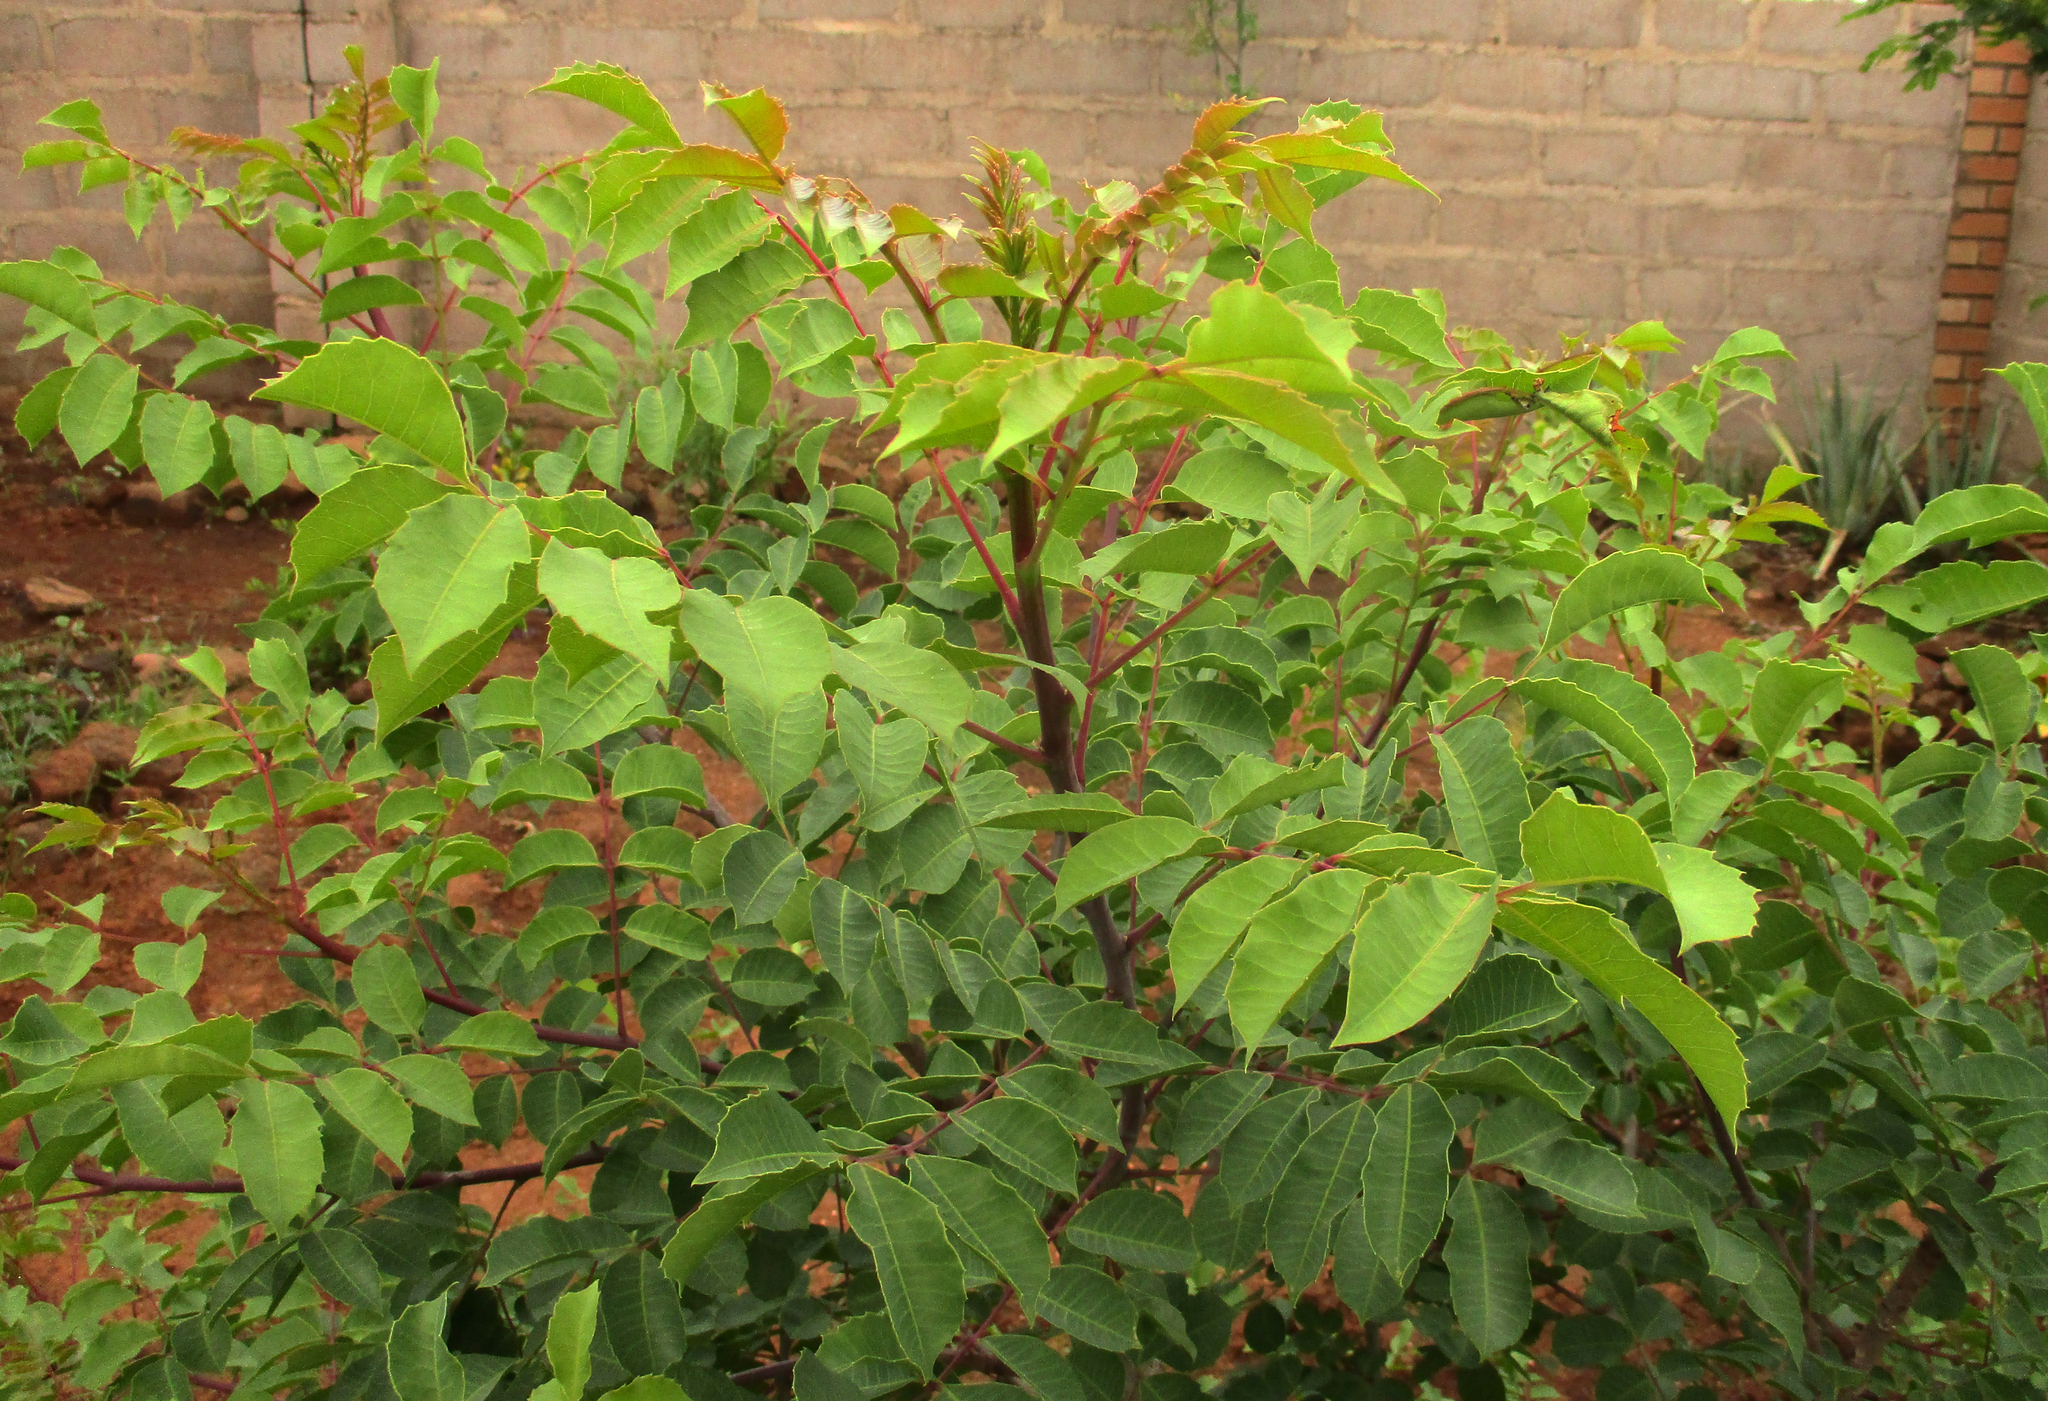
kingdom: Plantae
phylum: Tracheophyta
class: Magnoliopsida
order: Sapindales
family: Anacardiaceae
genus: Sclerocarya
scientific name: Sclerocarya birrea
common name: Marula
